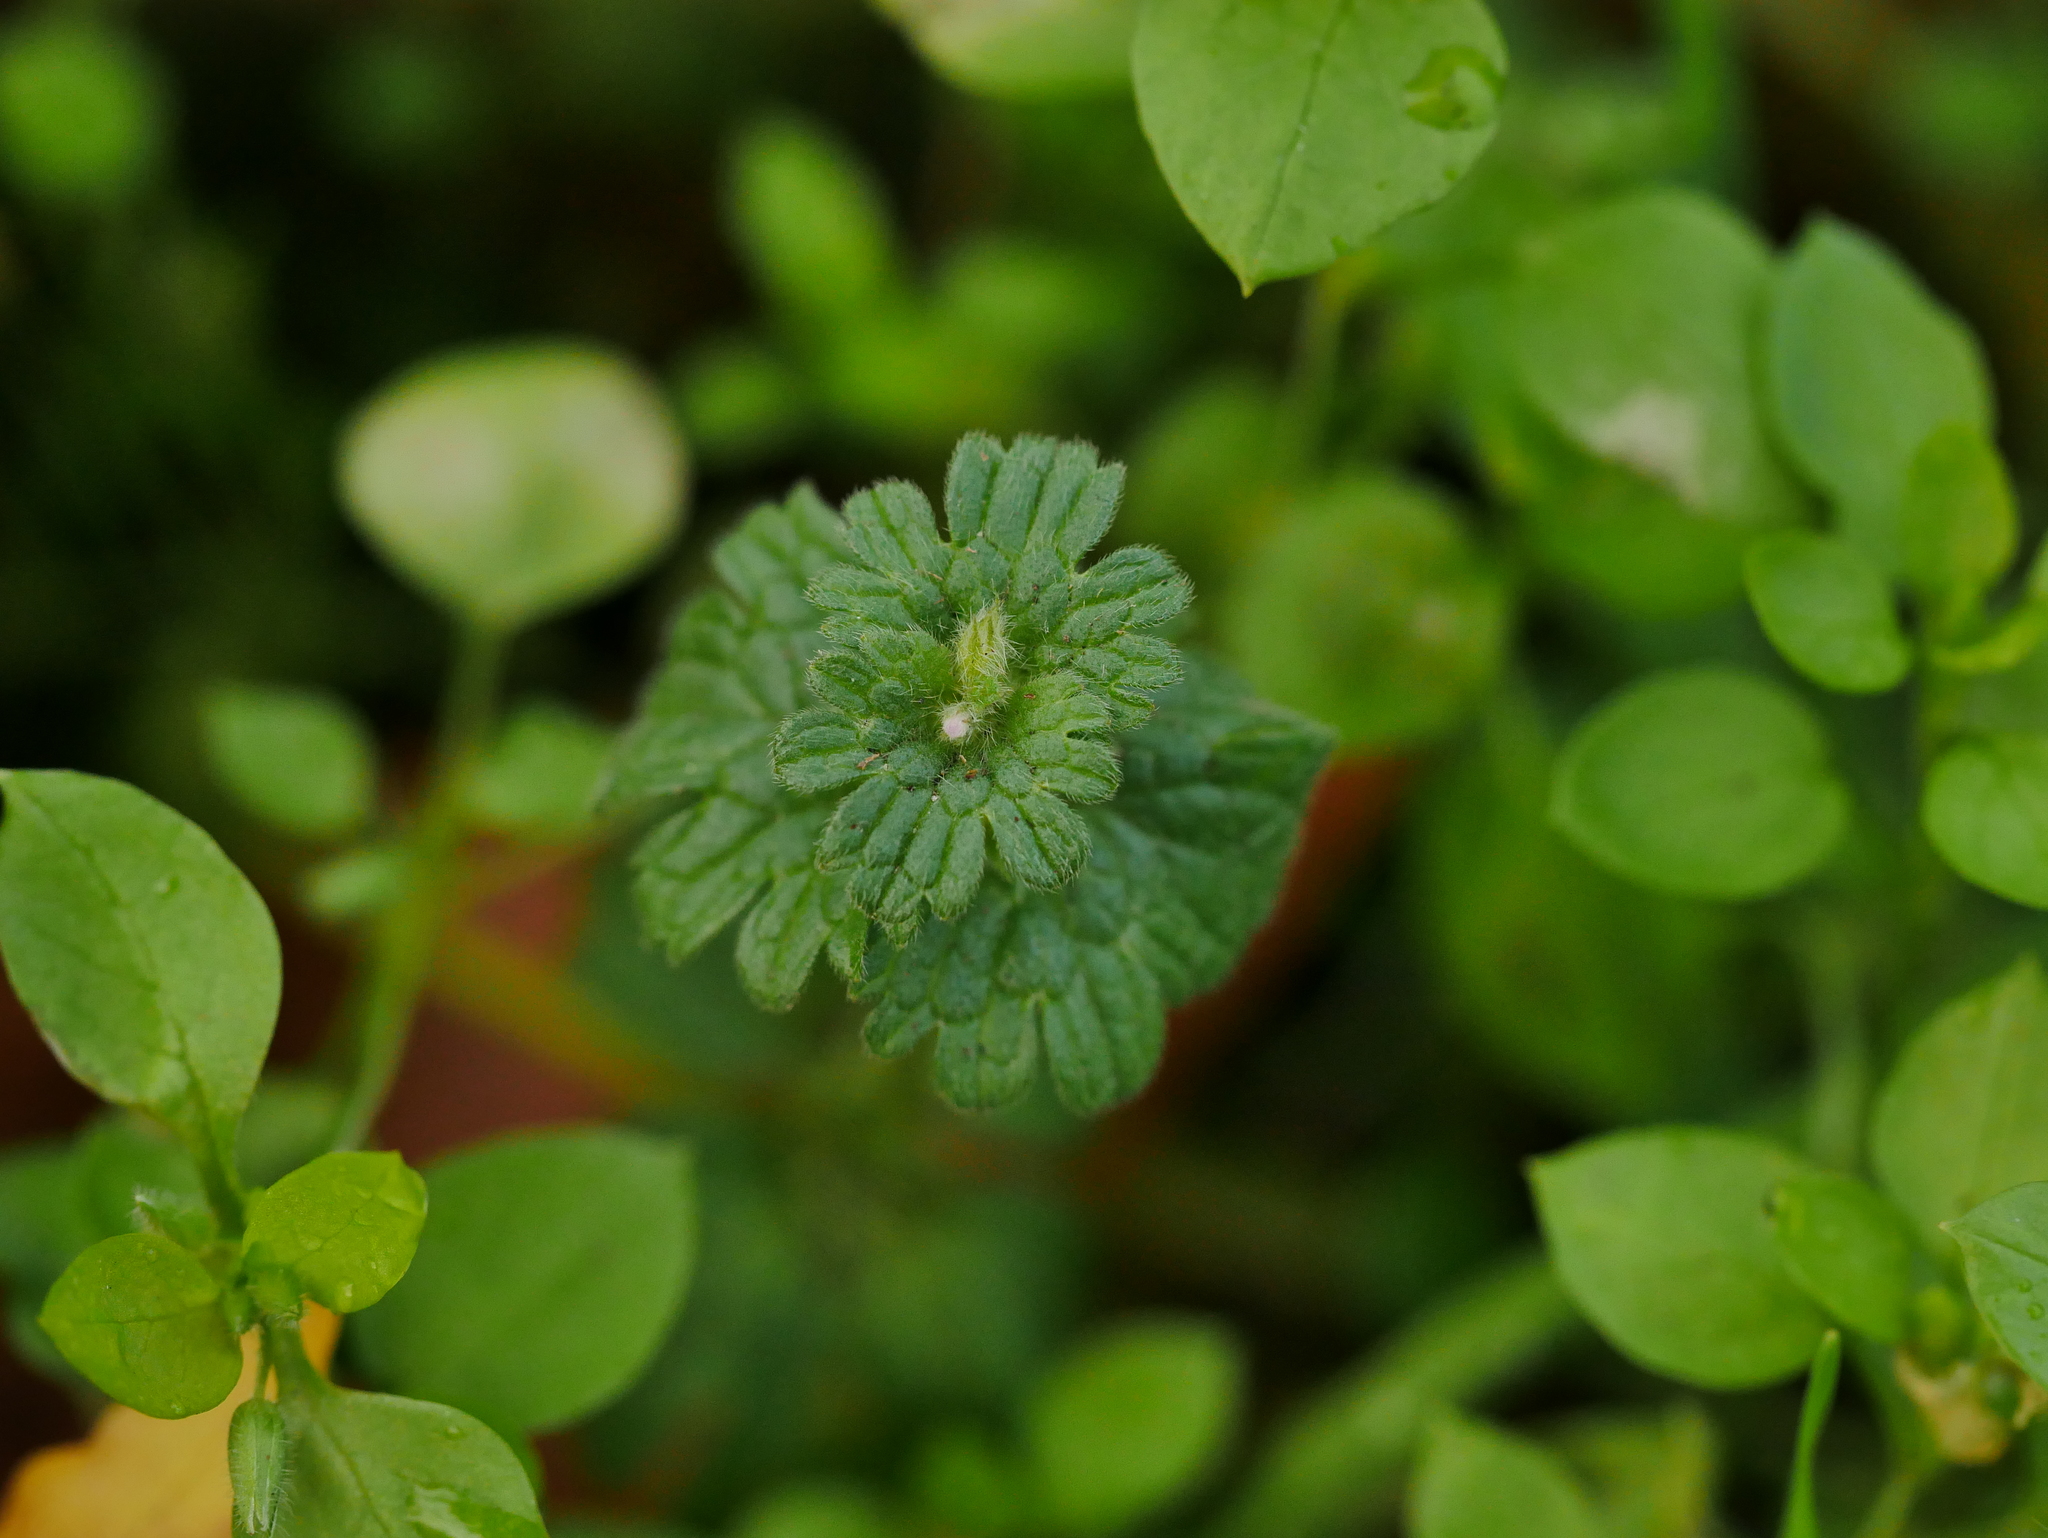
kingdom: Plantae
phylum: Tracheophyta
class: Magnoliopsida
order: Lamiales
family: Lamiaceae
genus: Lamium
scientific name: Lamium amplexicaule
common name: Henbit dead-nettle
